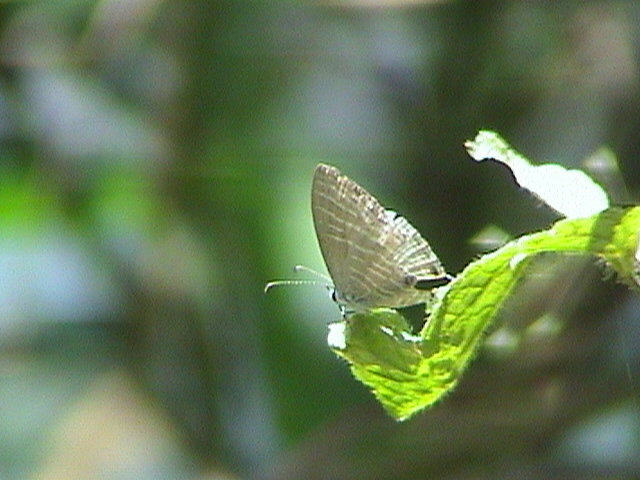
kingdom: Animalia
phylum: Arthropoda
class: Insecta
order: Lepidoptera
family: Lycaenidae
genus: Jamides
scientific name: Jamides celeno
